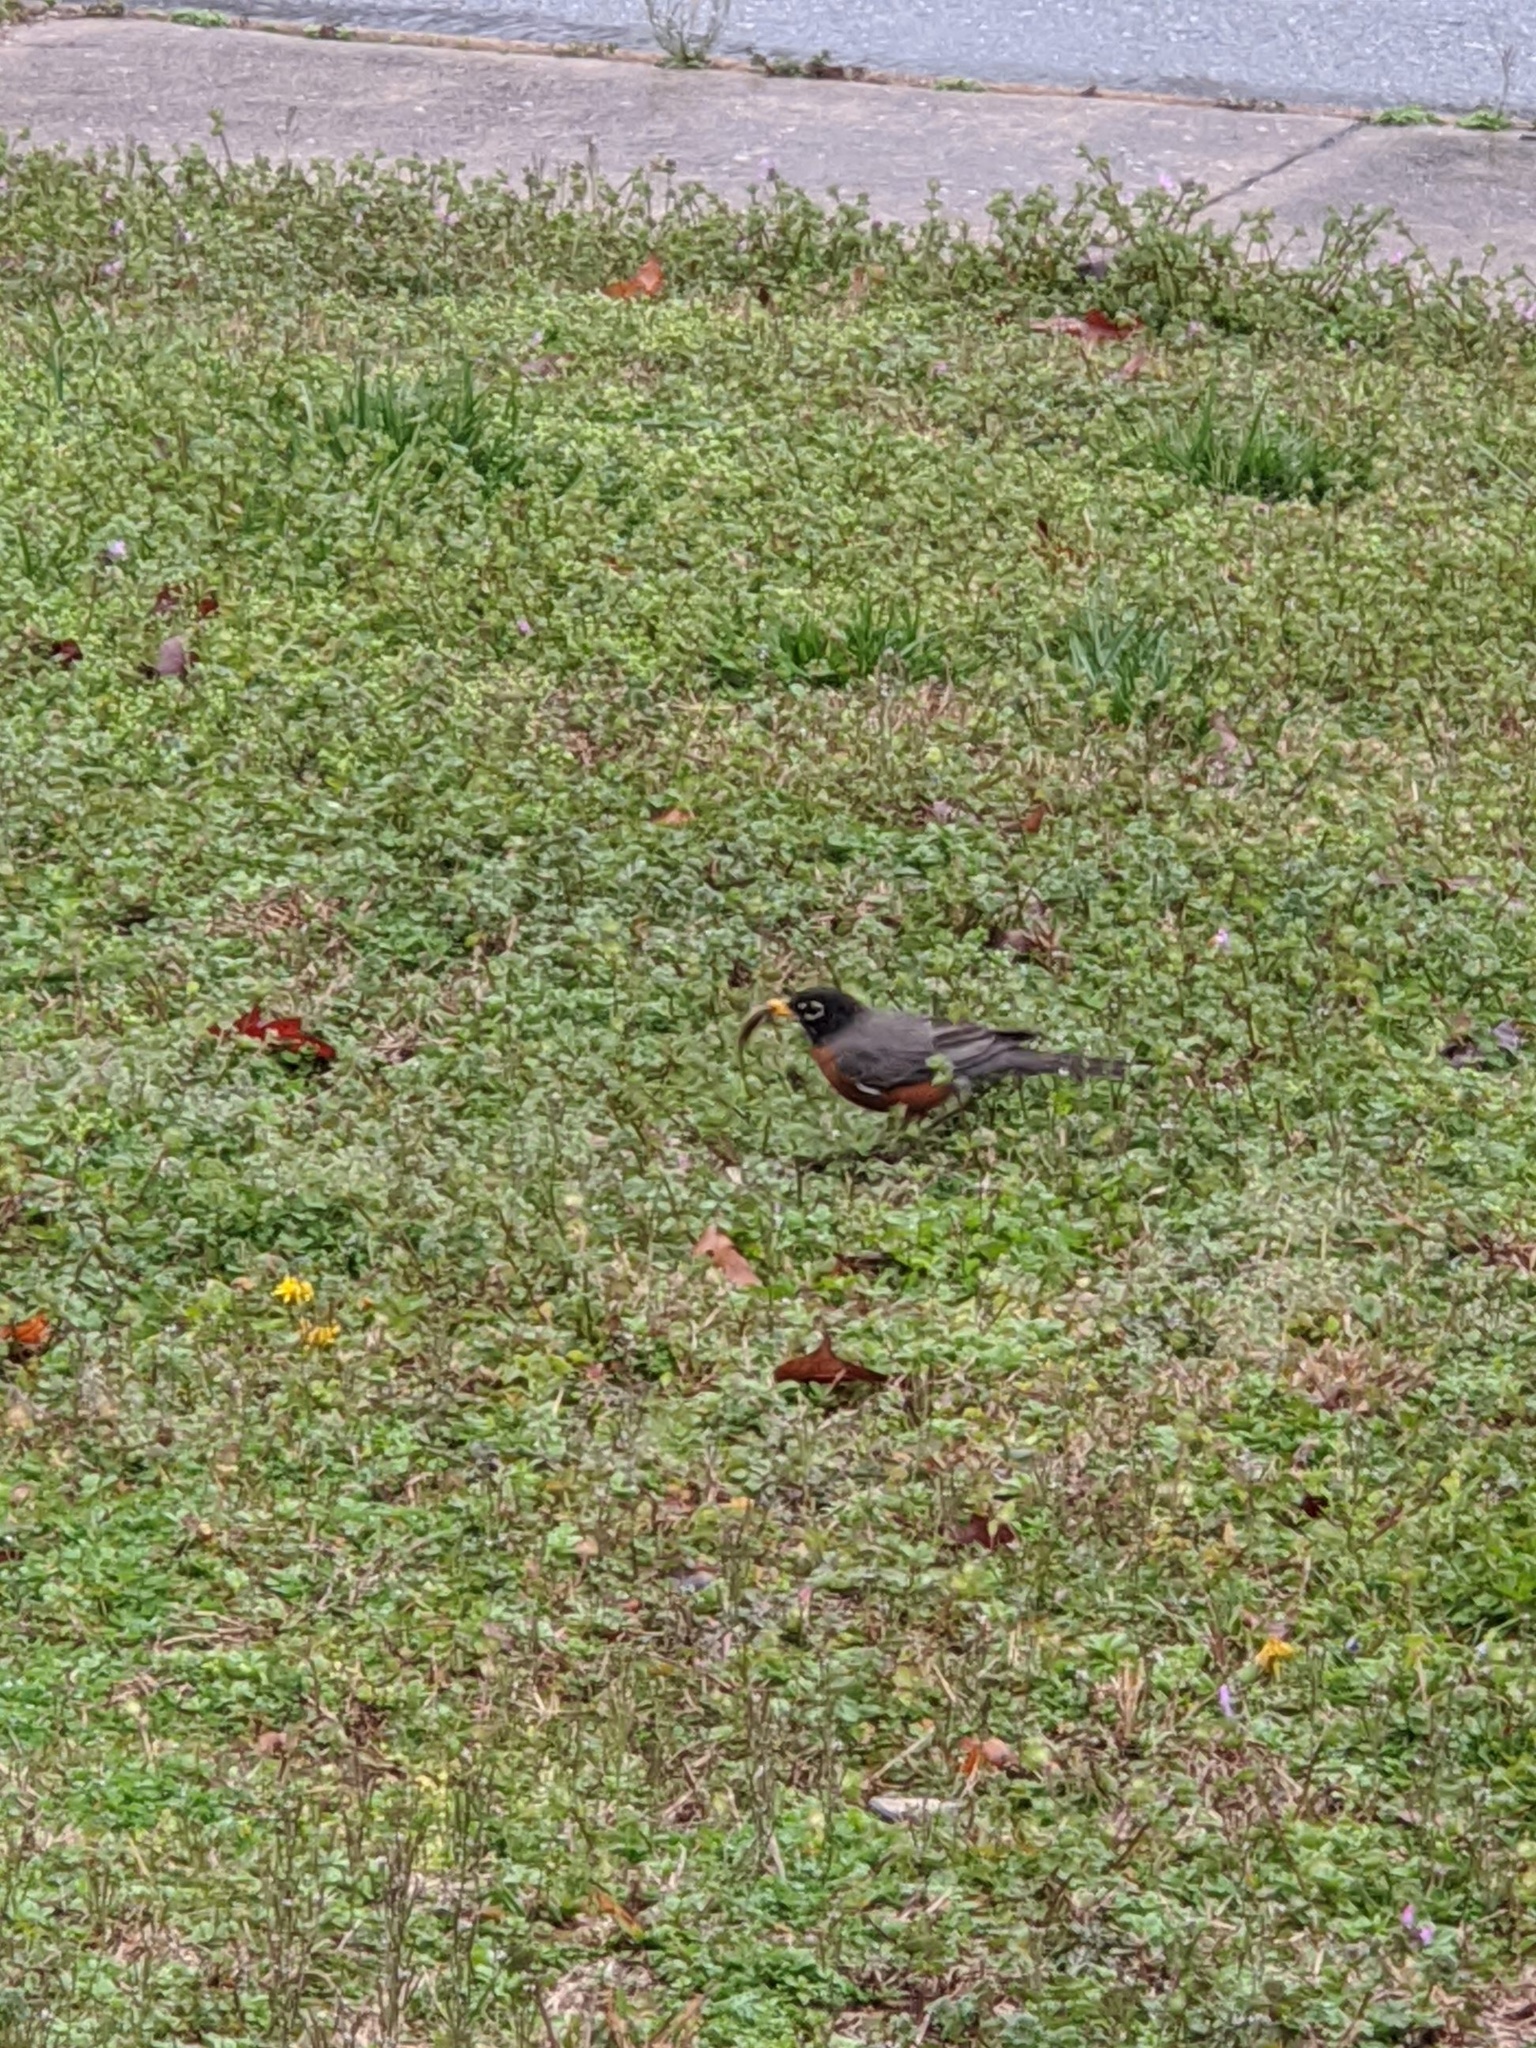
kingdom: Animalia
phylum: Chordata
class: Aves
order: Passeriformes
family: Turdidae
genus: Turdus
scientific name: Turdus migratorius
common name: American robin
